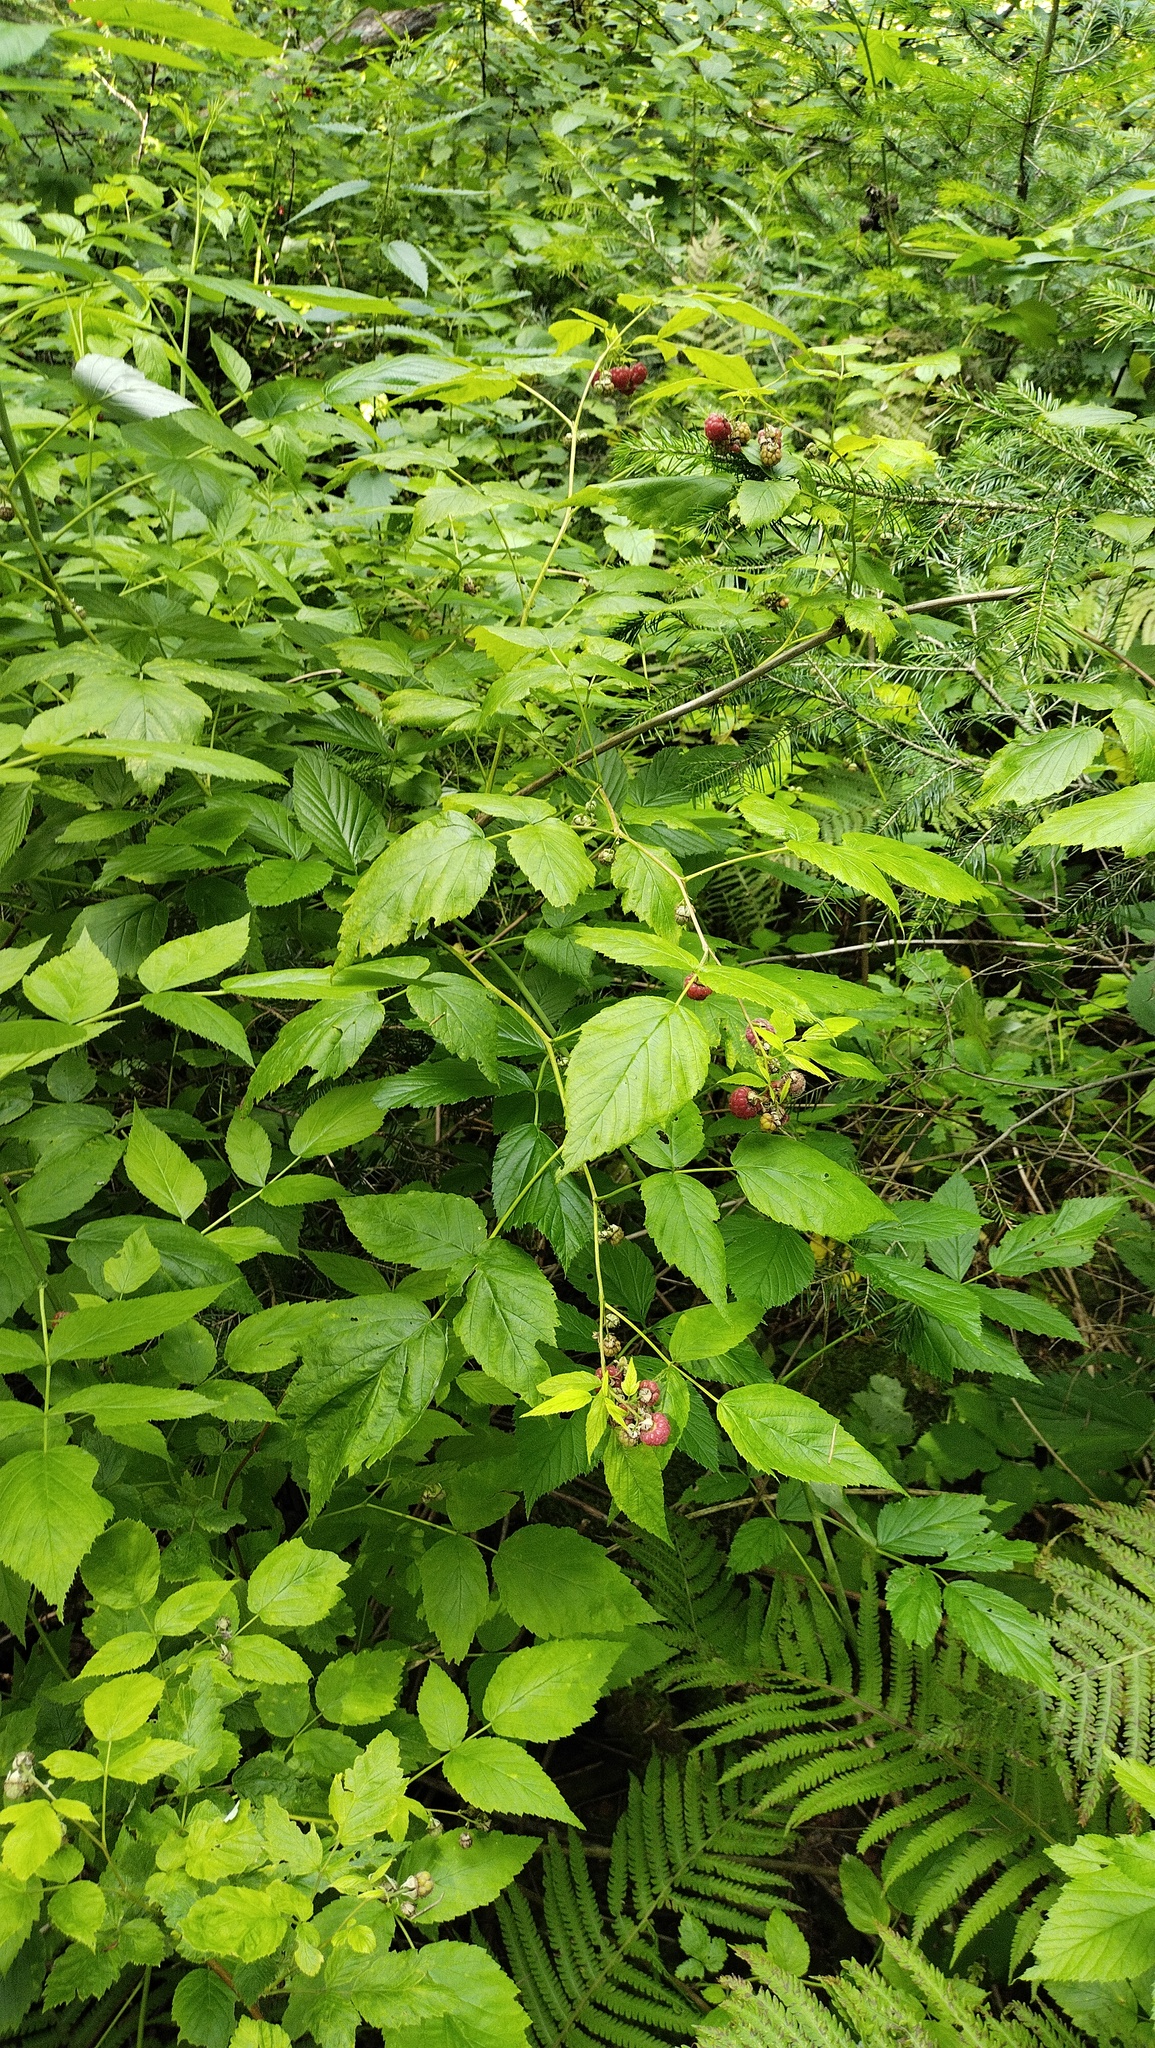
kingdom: Plantae
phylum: Tracheophyta
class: Magnoliopsida
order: Rosales
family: Rosaceae
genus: Rubus
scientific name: Rubus idaeus
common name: Raspberry
